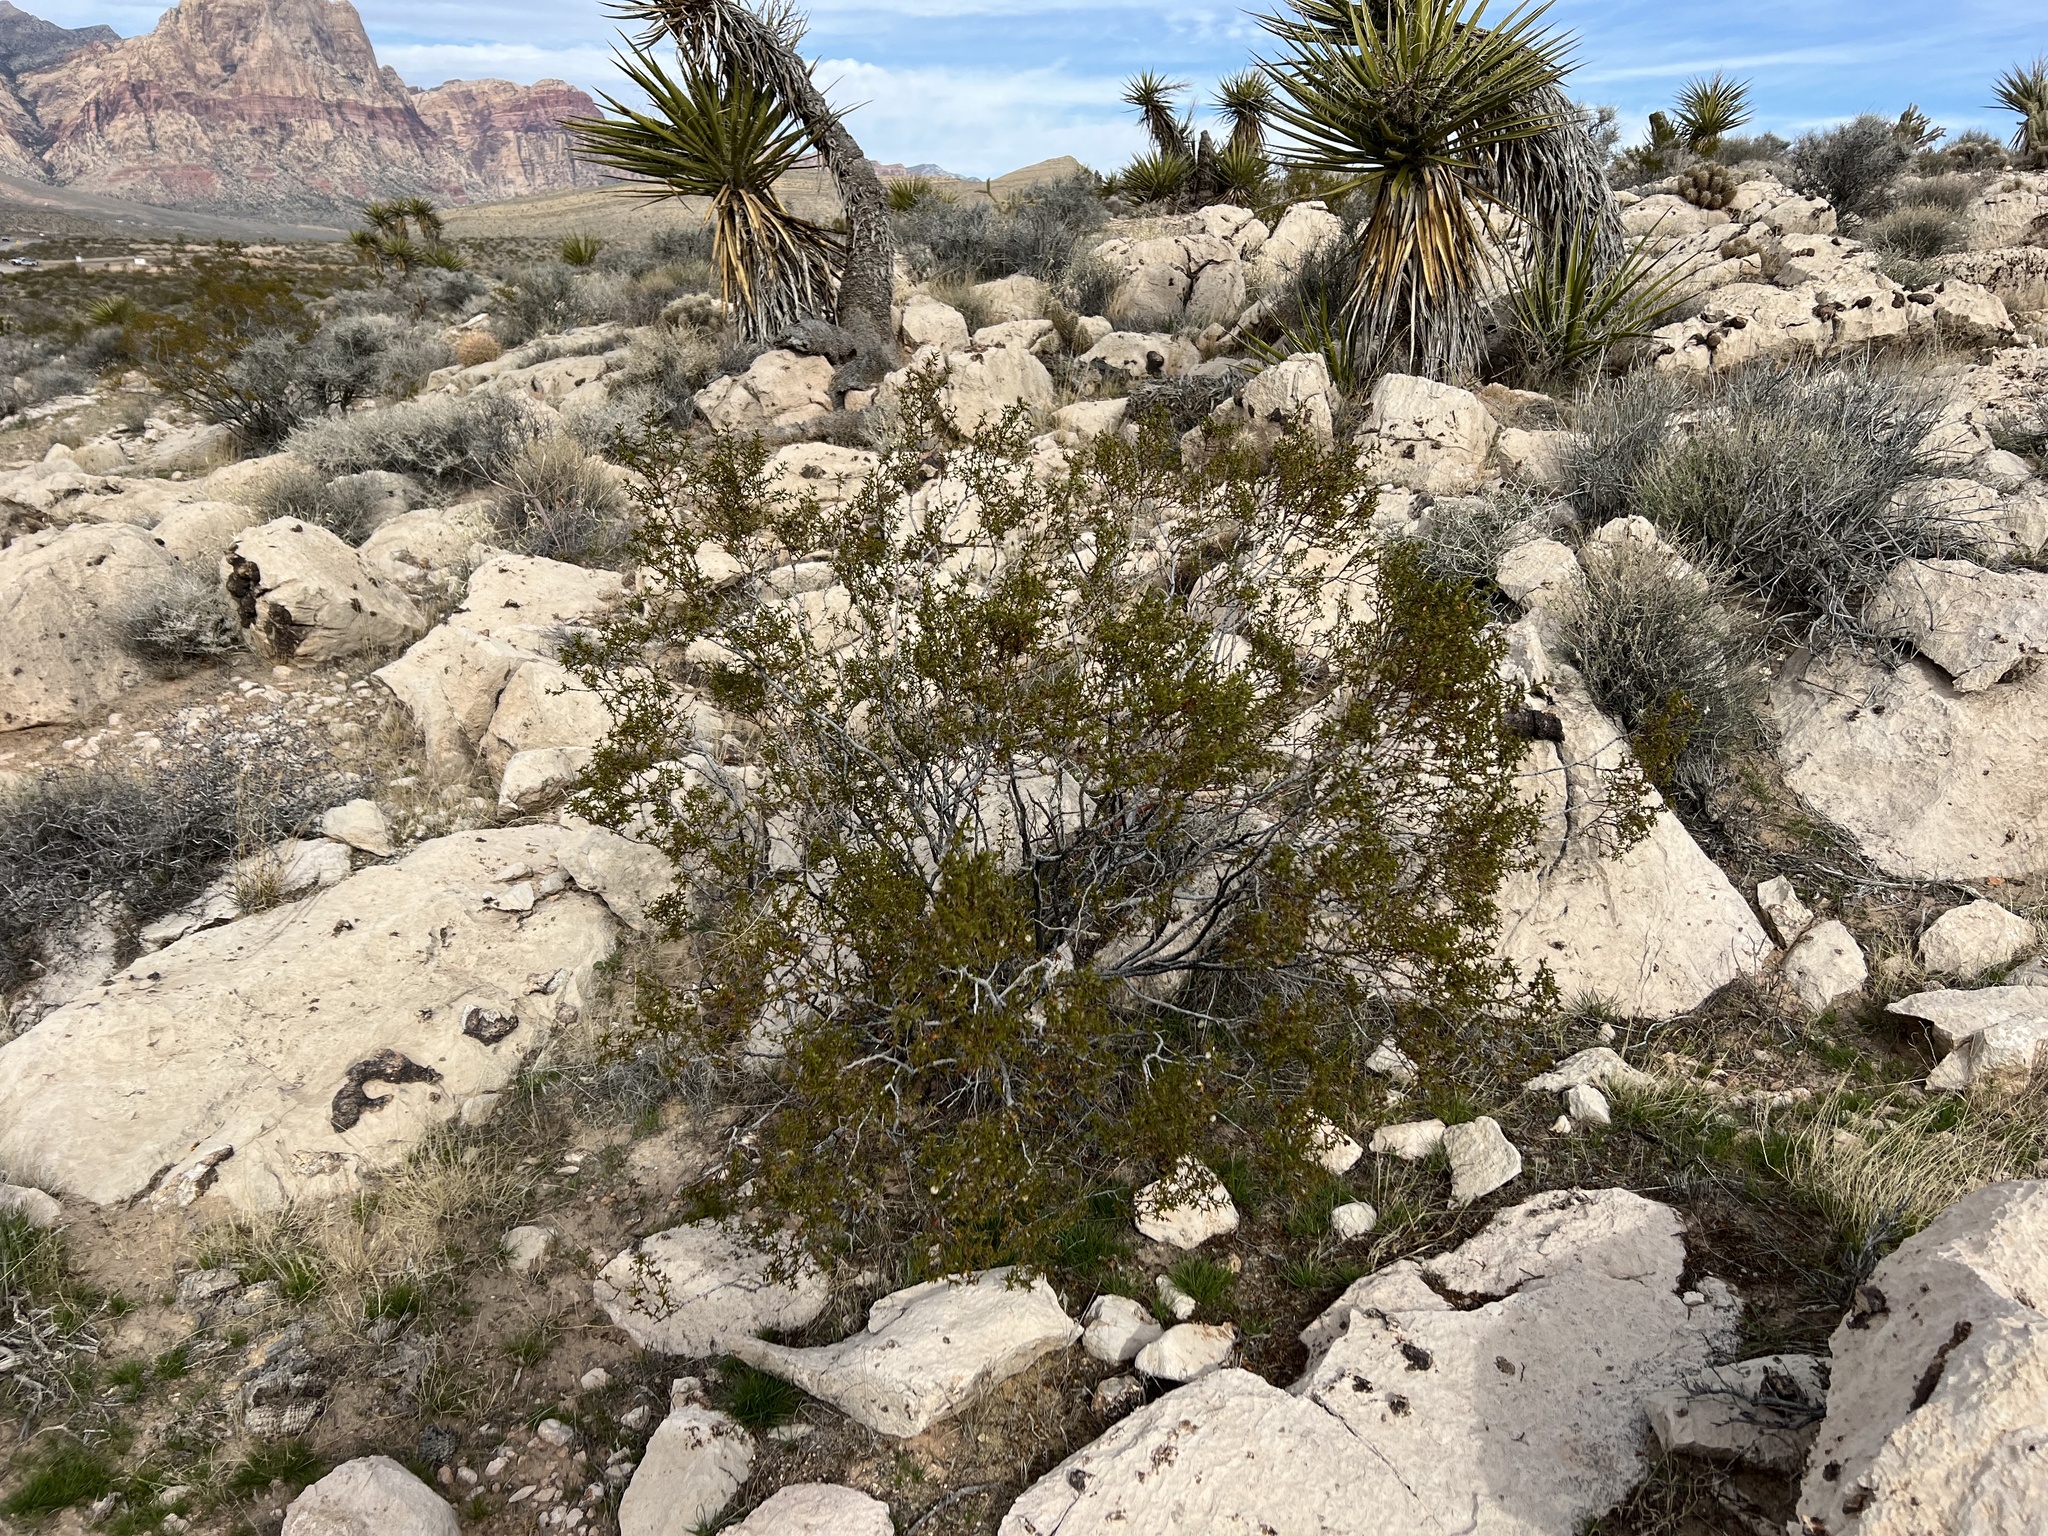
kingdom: Plantae
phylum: Tracheophyta
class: Magnoliopsida
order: Zygophyllales
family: Zygophyllaceae
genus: Larrea
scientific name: Larrea tridentata
